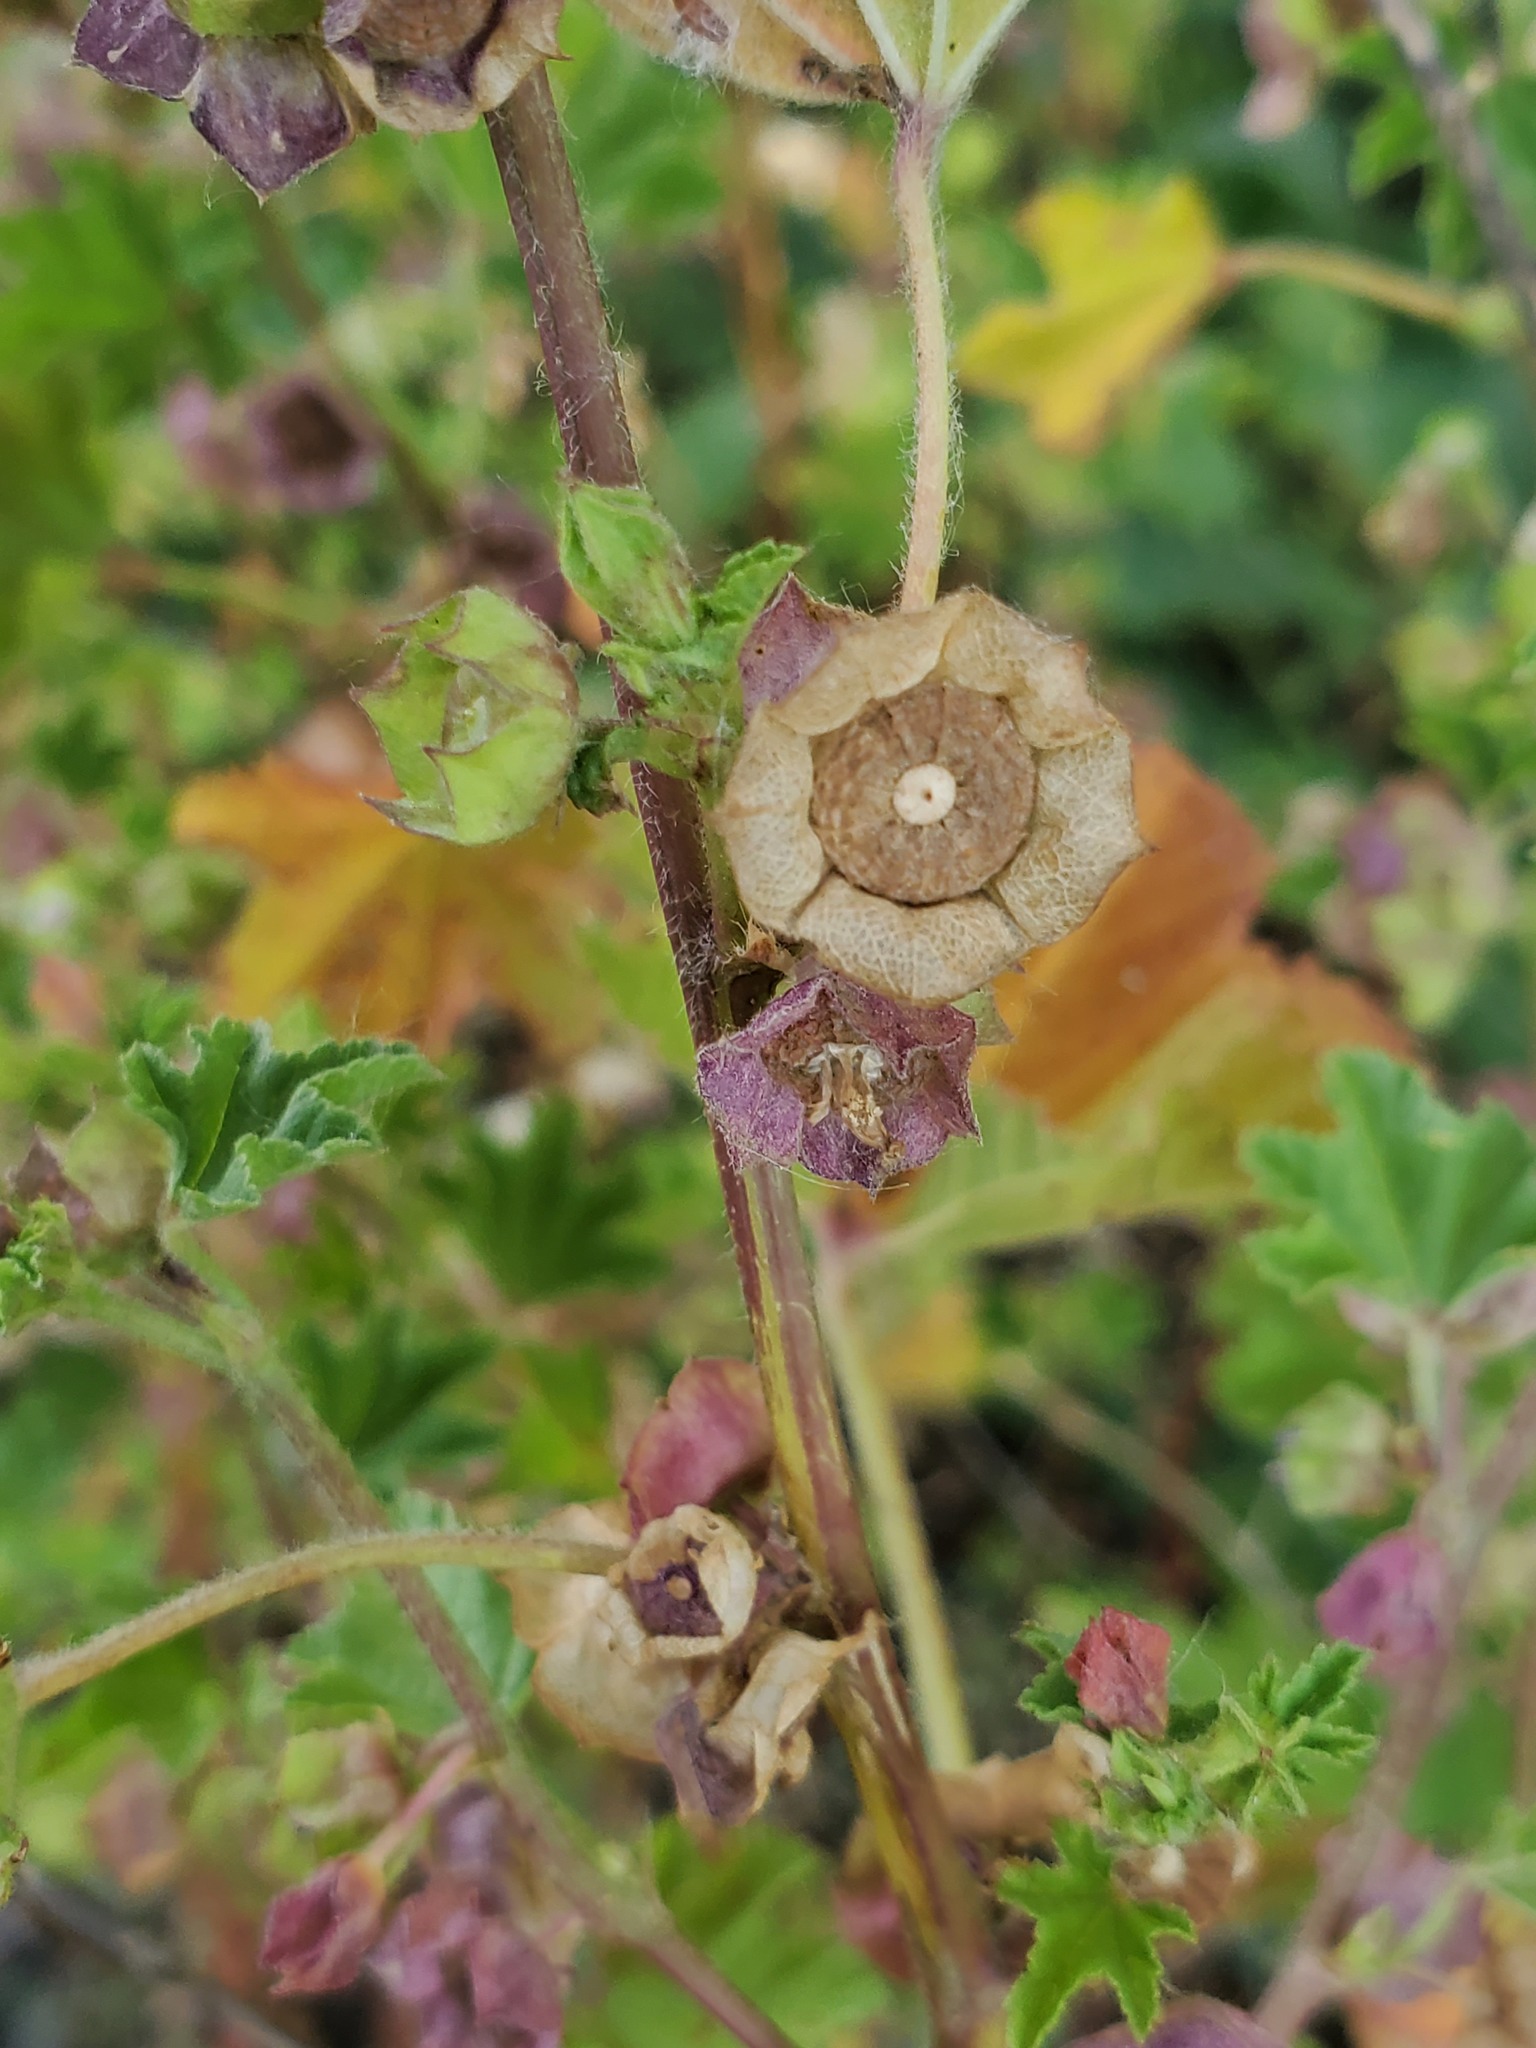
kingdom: Plantae
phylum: Tracheophyta
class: Magnoliopsida
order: Malvales
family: Malvaceae
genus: Malva
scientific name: Malva parviflora
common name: Least mallow
